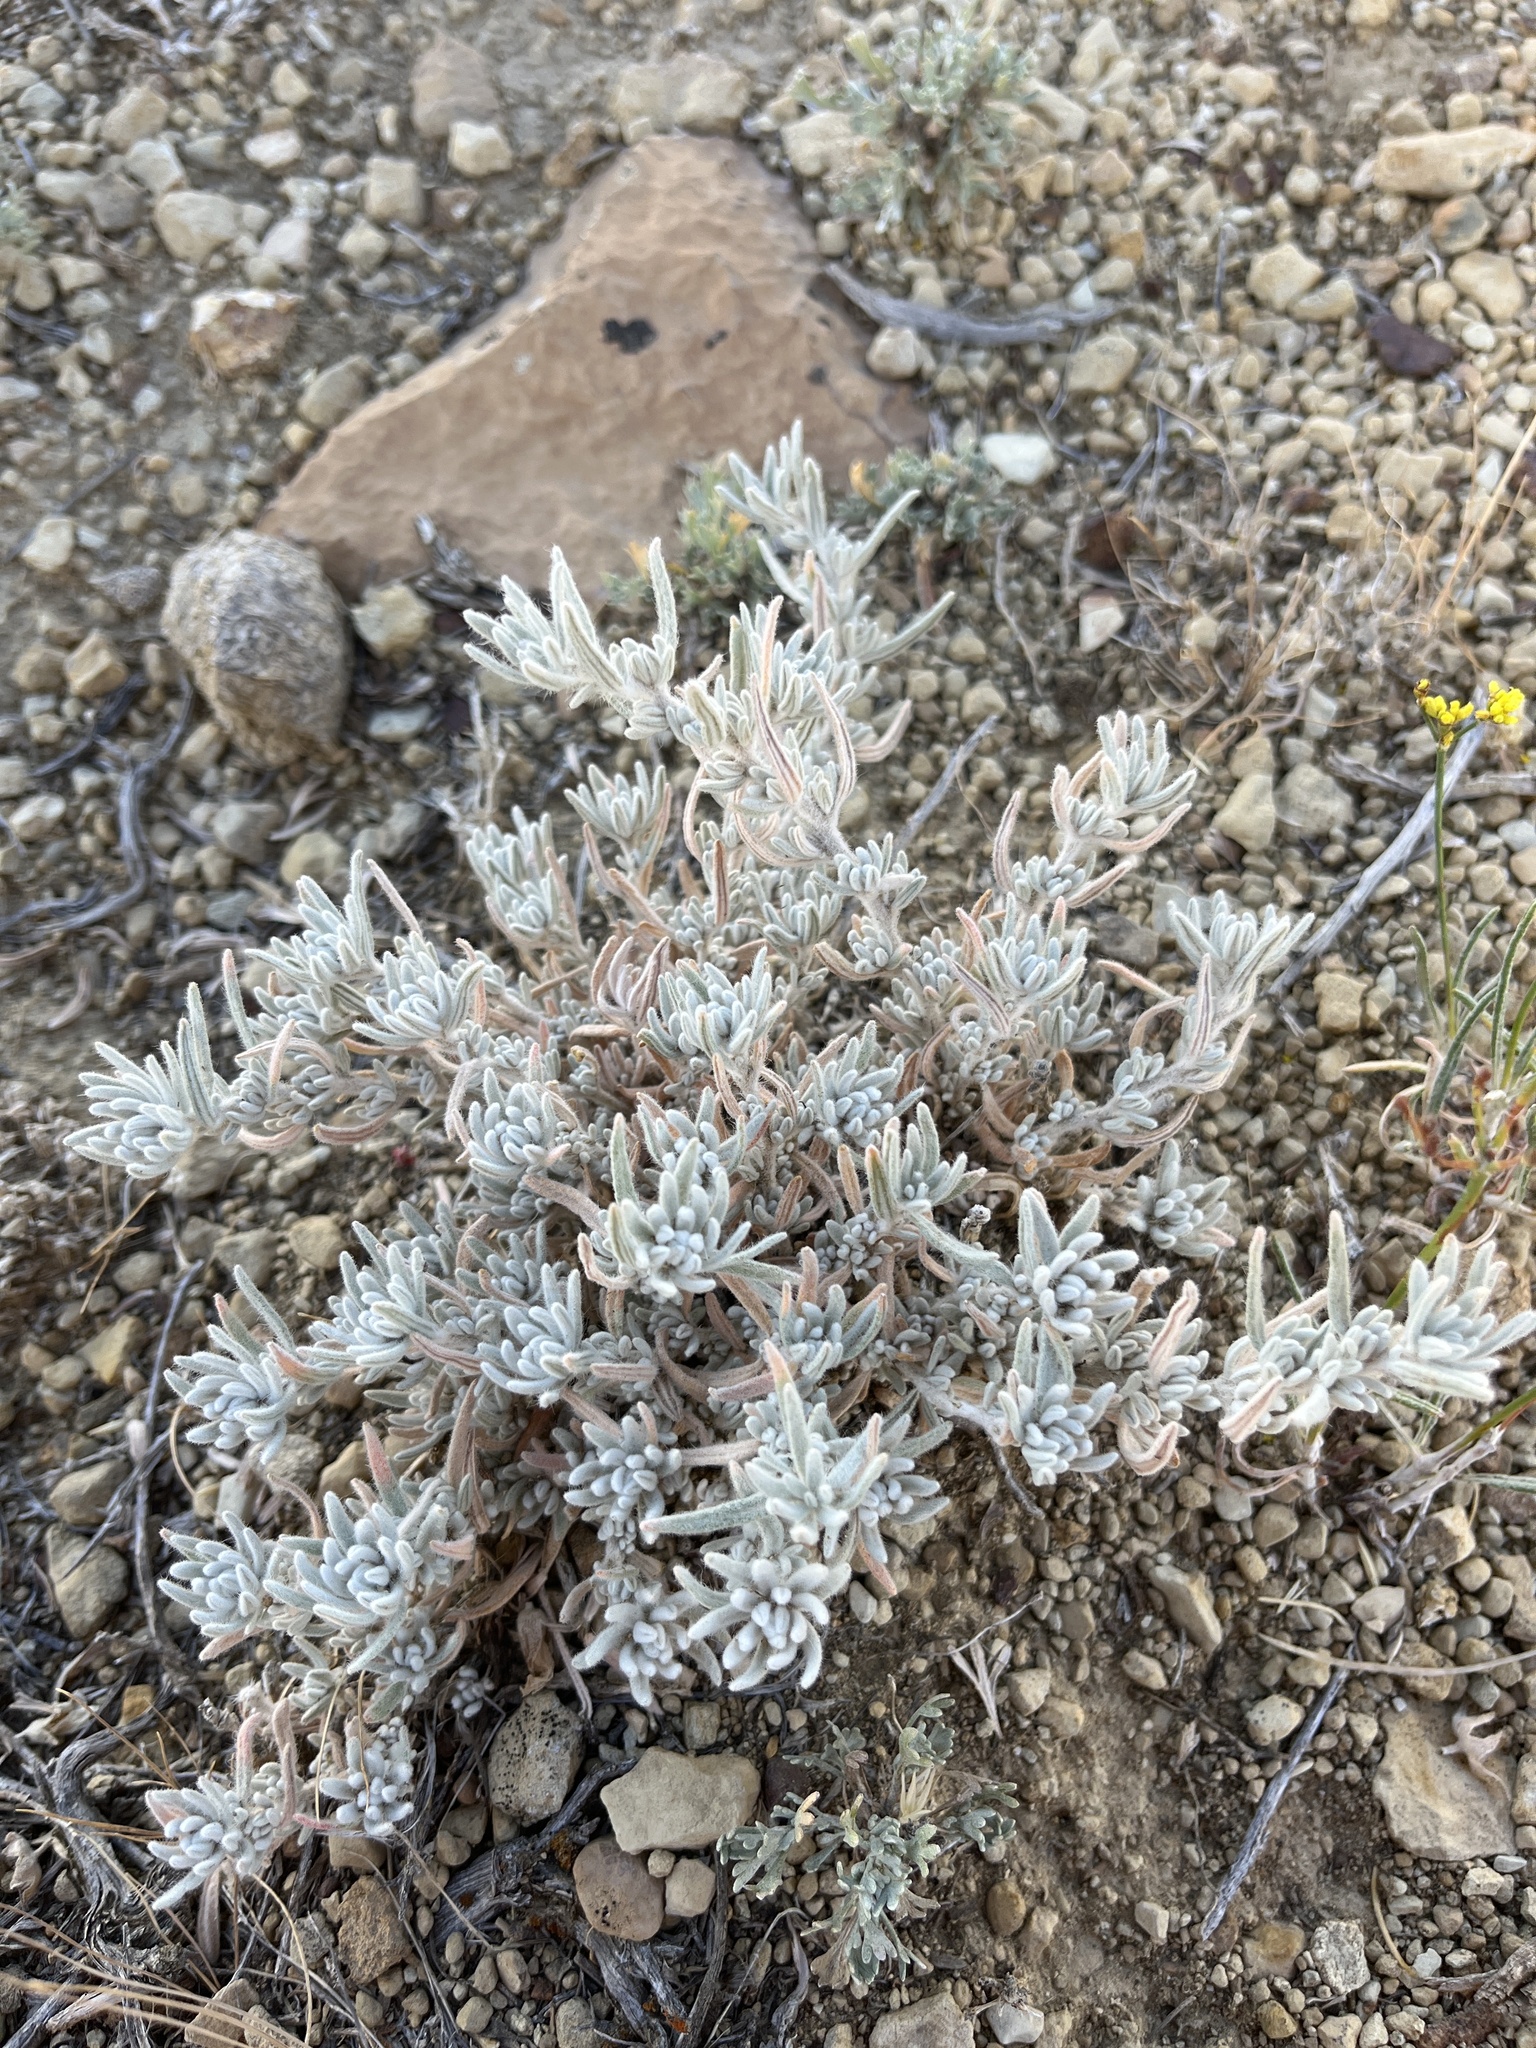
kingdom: Plantae
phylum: Tracheophyta
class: Magnoliopsida
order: Caryophyllales
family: Amaranthaceae
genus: Krascheninnikovia
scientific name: Krascheninnikovia lanata
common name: Winterfat
